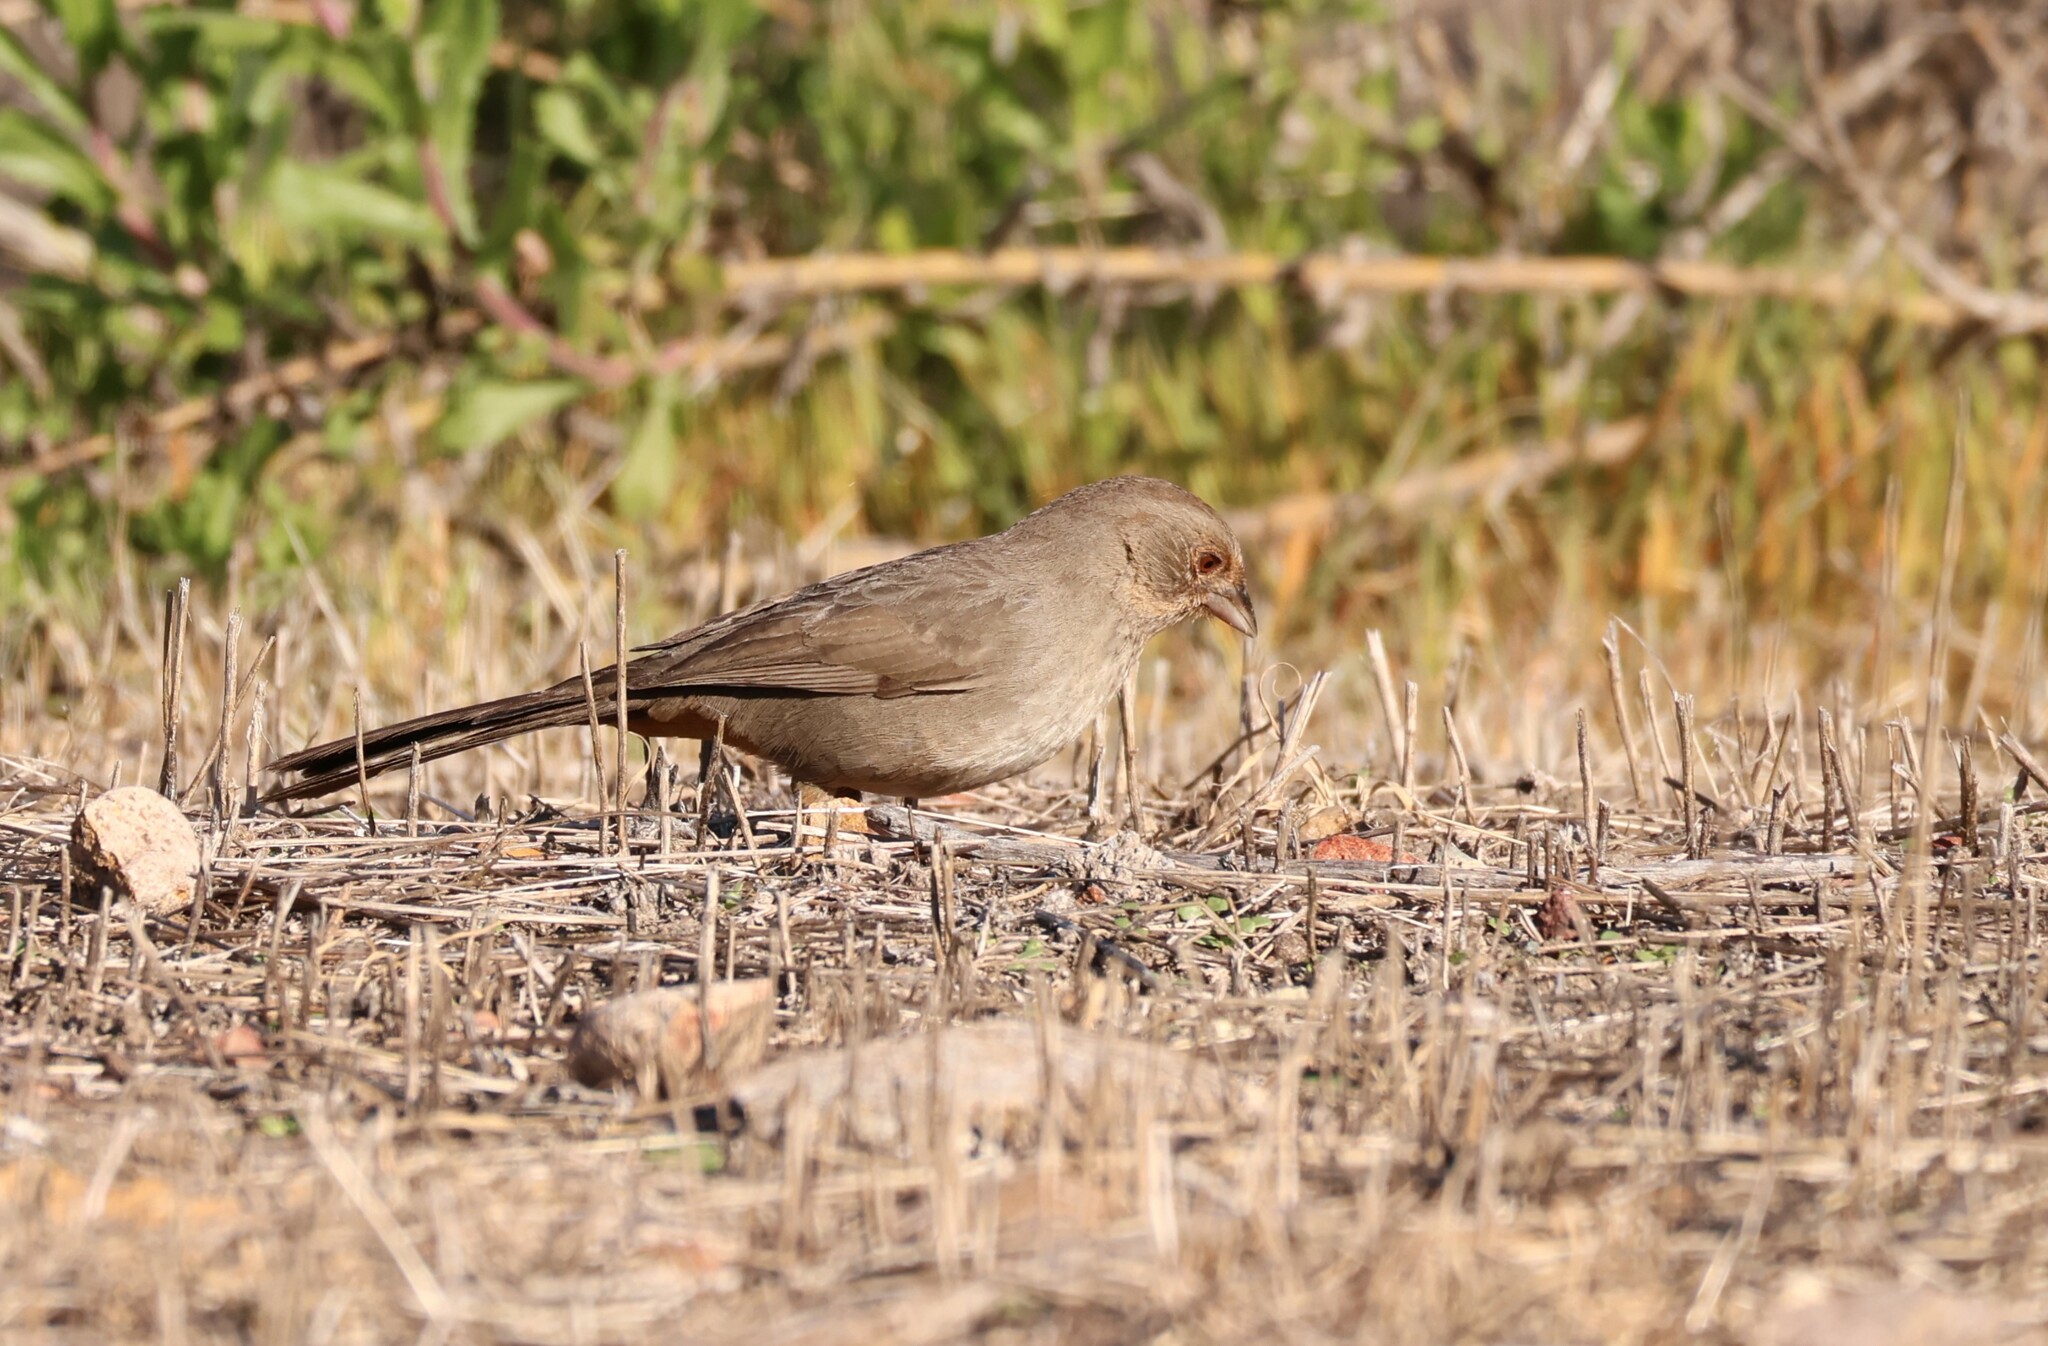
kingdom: Animalia
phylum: Chordata
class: Aves
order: Passeriformes
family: Passerellidae
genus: Melozone
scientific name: Melozone crissalis
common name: California towhee
